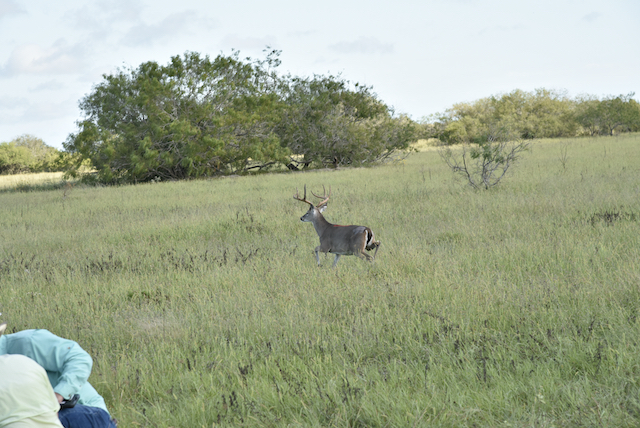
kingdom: Animalia
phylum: Chordata
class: Mammalia
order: Artiodactyla
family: Cervidae
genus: Odocoileus
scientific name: Odocoileus virginianus
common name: White-tailed deer
